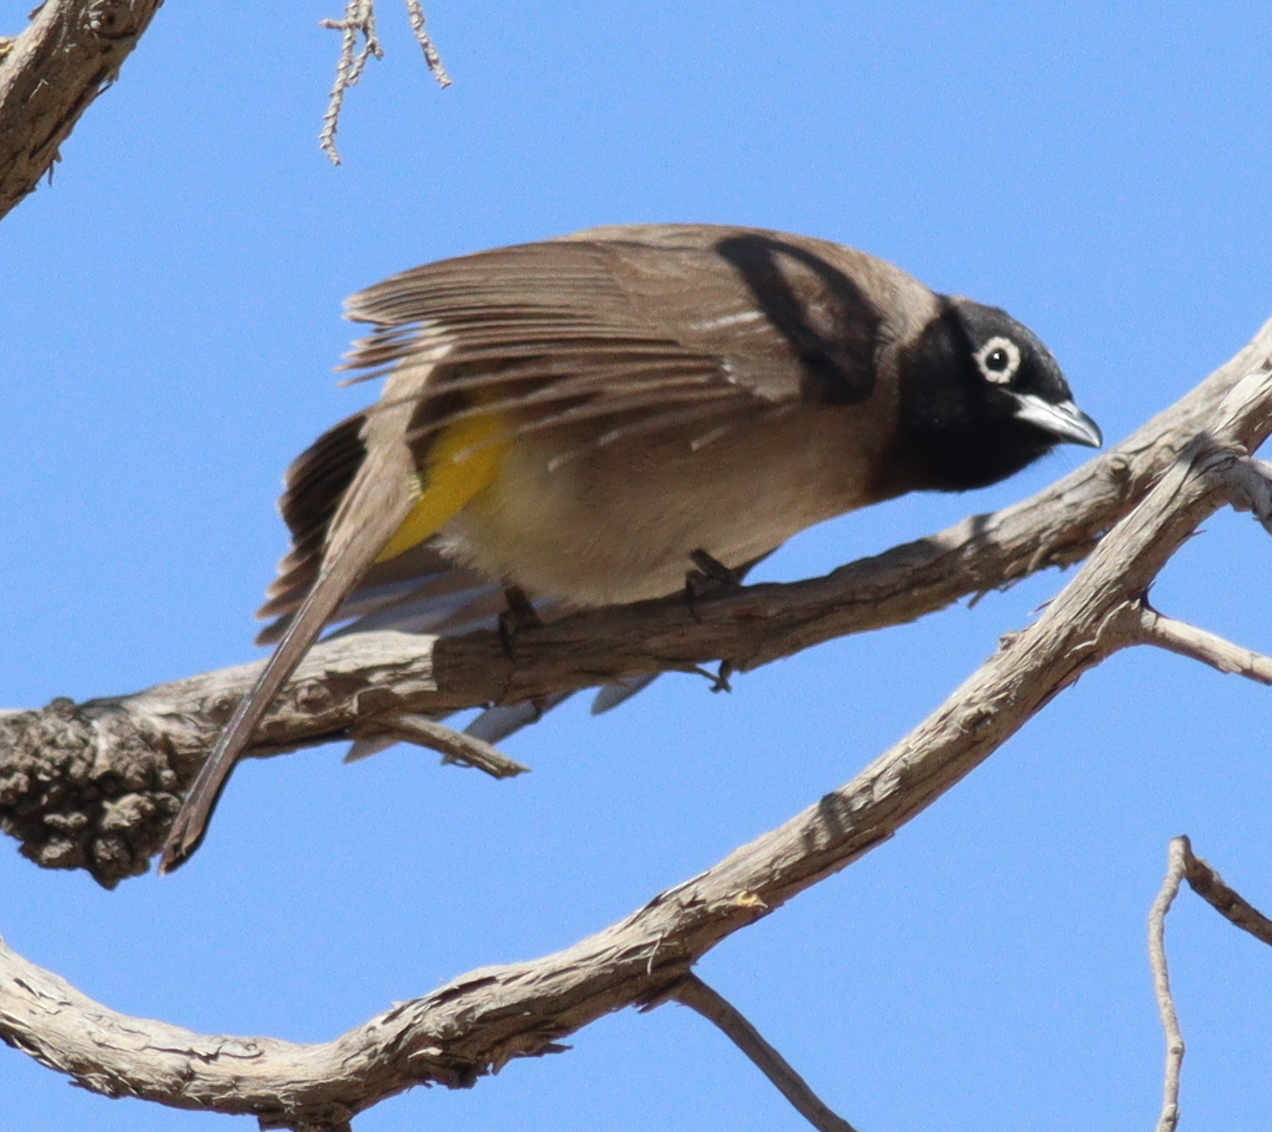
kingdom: Animalia
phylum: Chordata
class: Aves
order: Passeriformes
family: Pycnonotidae
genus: Pycnonotus
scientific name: Pycnonotus xanthopygos
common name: White-spectacled bulbul
